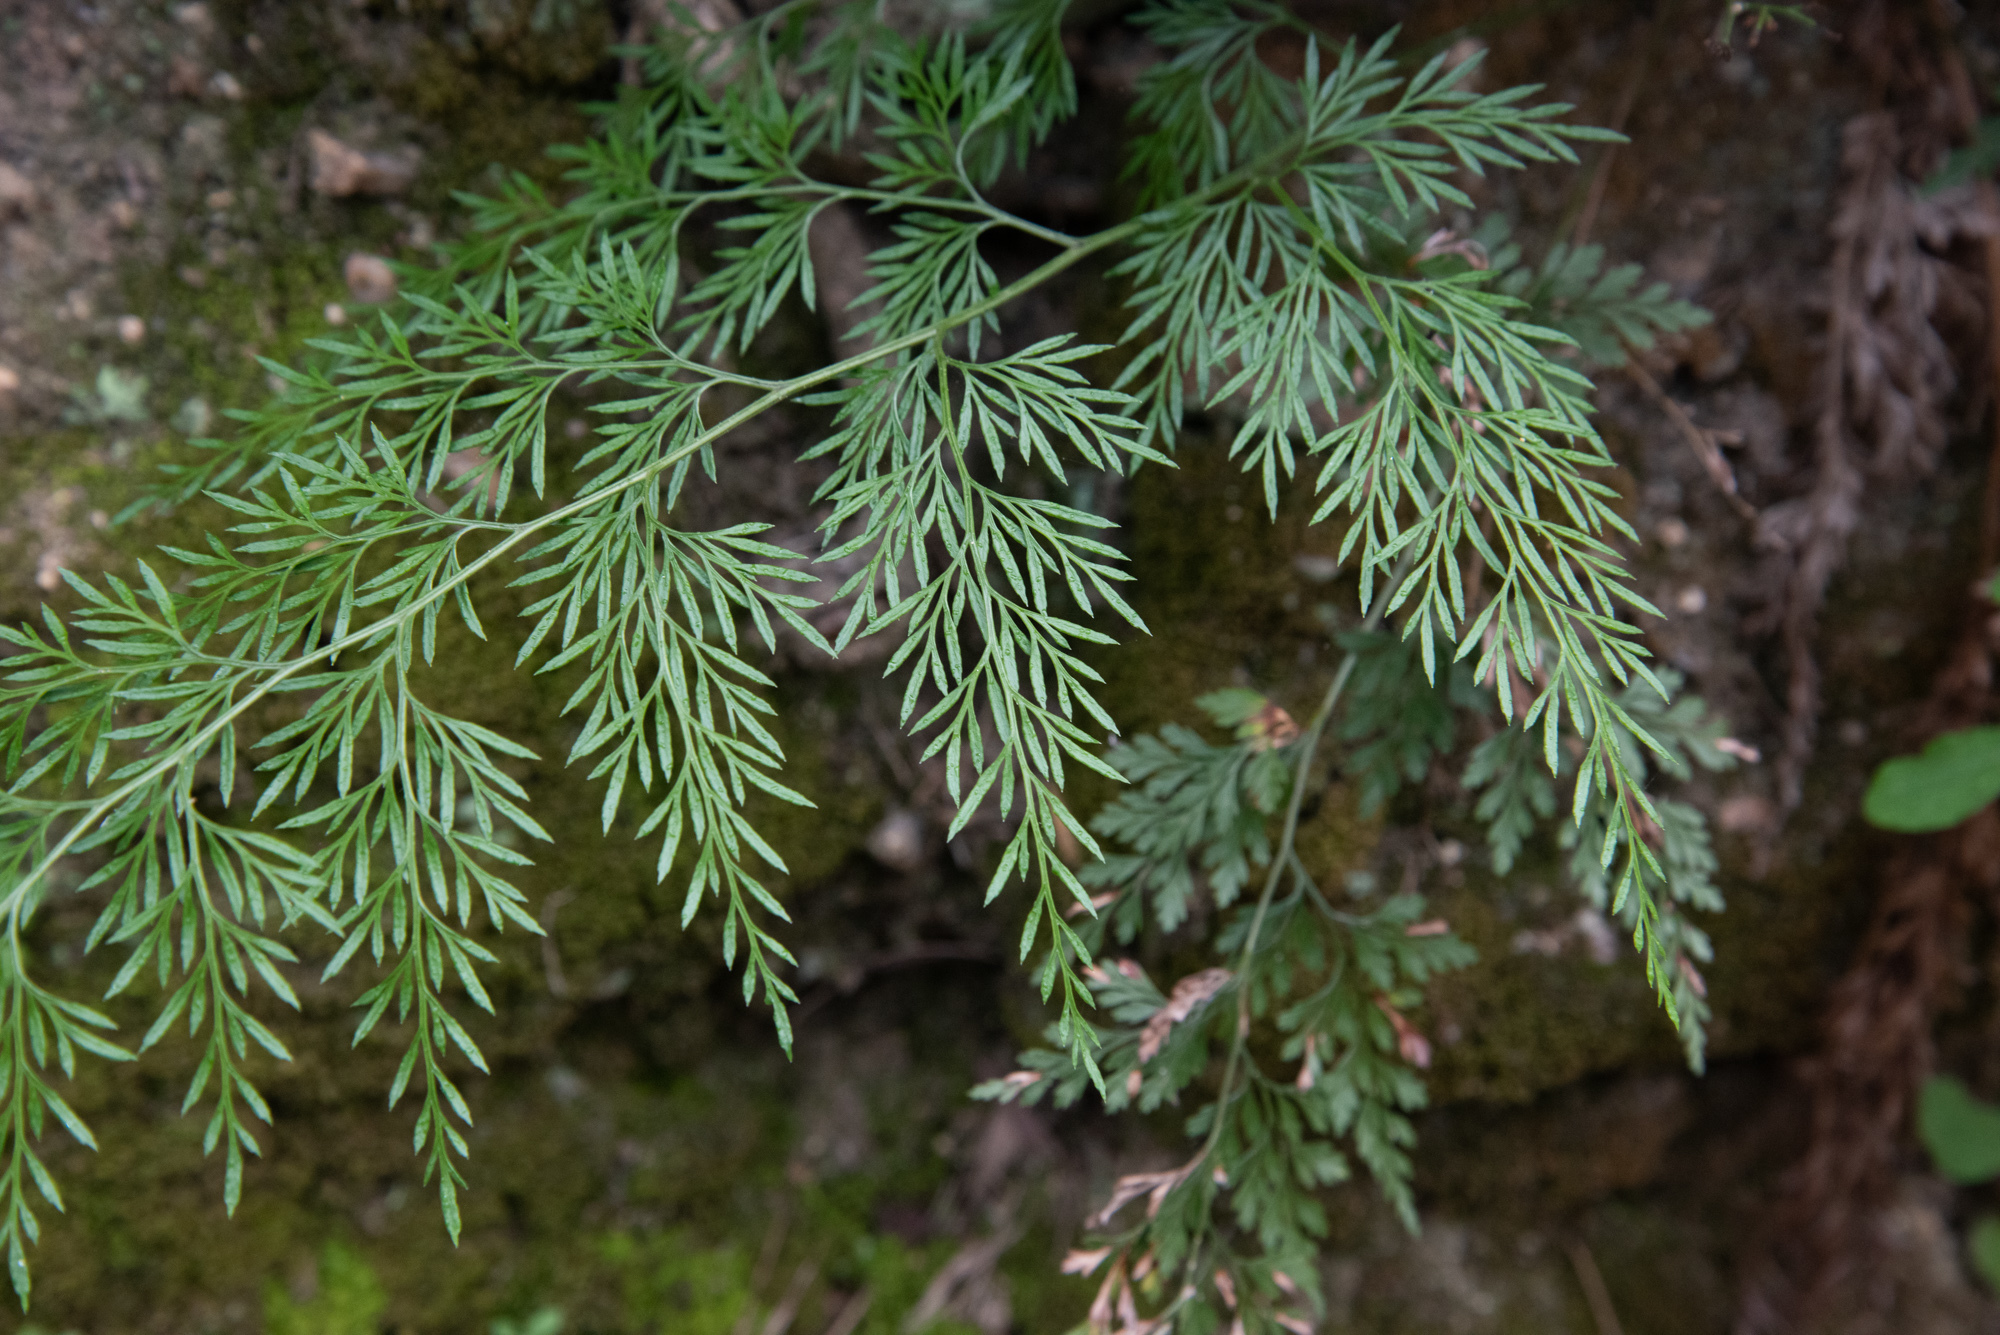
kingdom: Plantae
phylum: Tracheophyta
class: Polypodiopsida
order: Polypodiales
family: Pteridaceae
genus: Onychium
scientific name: Onychium japonicum
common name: Carrot fern
